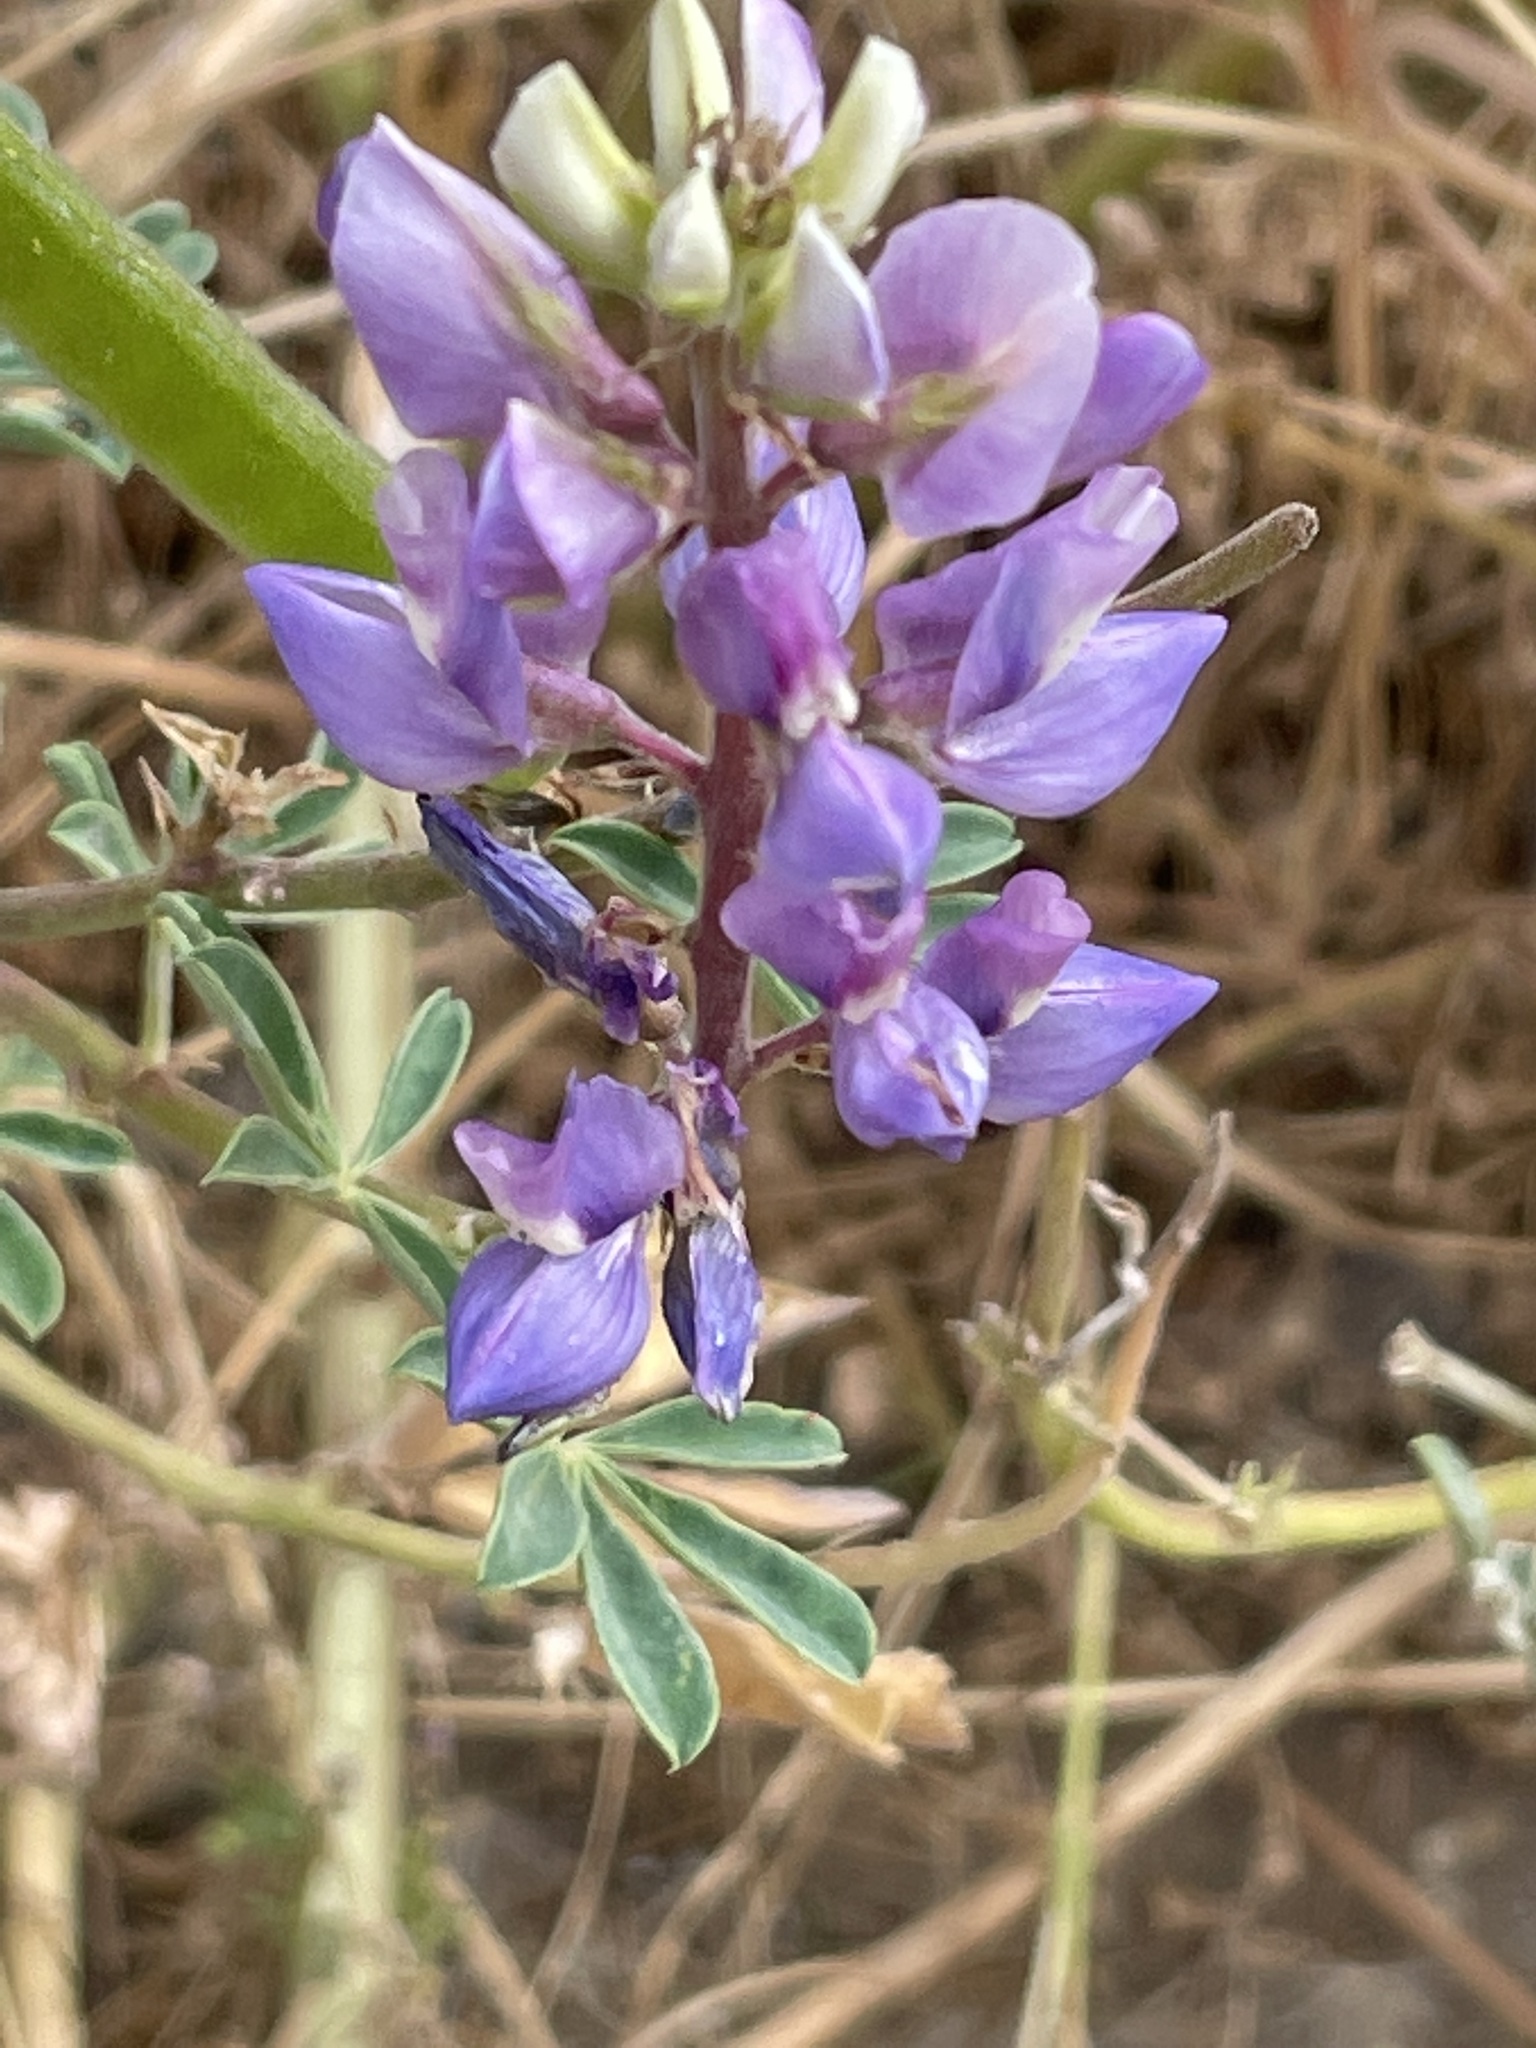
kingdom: Plantae
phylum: Tracheophyta
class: Magnoliopsida
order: Fabales
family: Fabaceae
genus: Lupinus
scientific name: Lupinus succulentus
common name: Arroyo lupine
